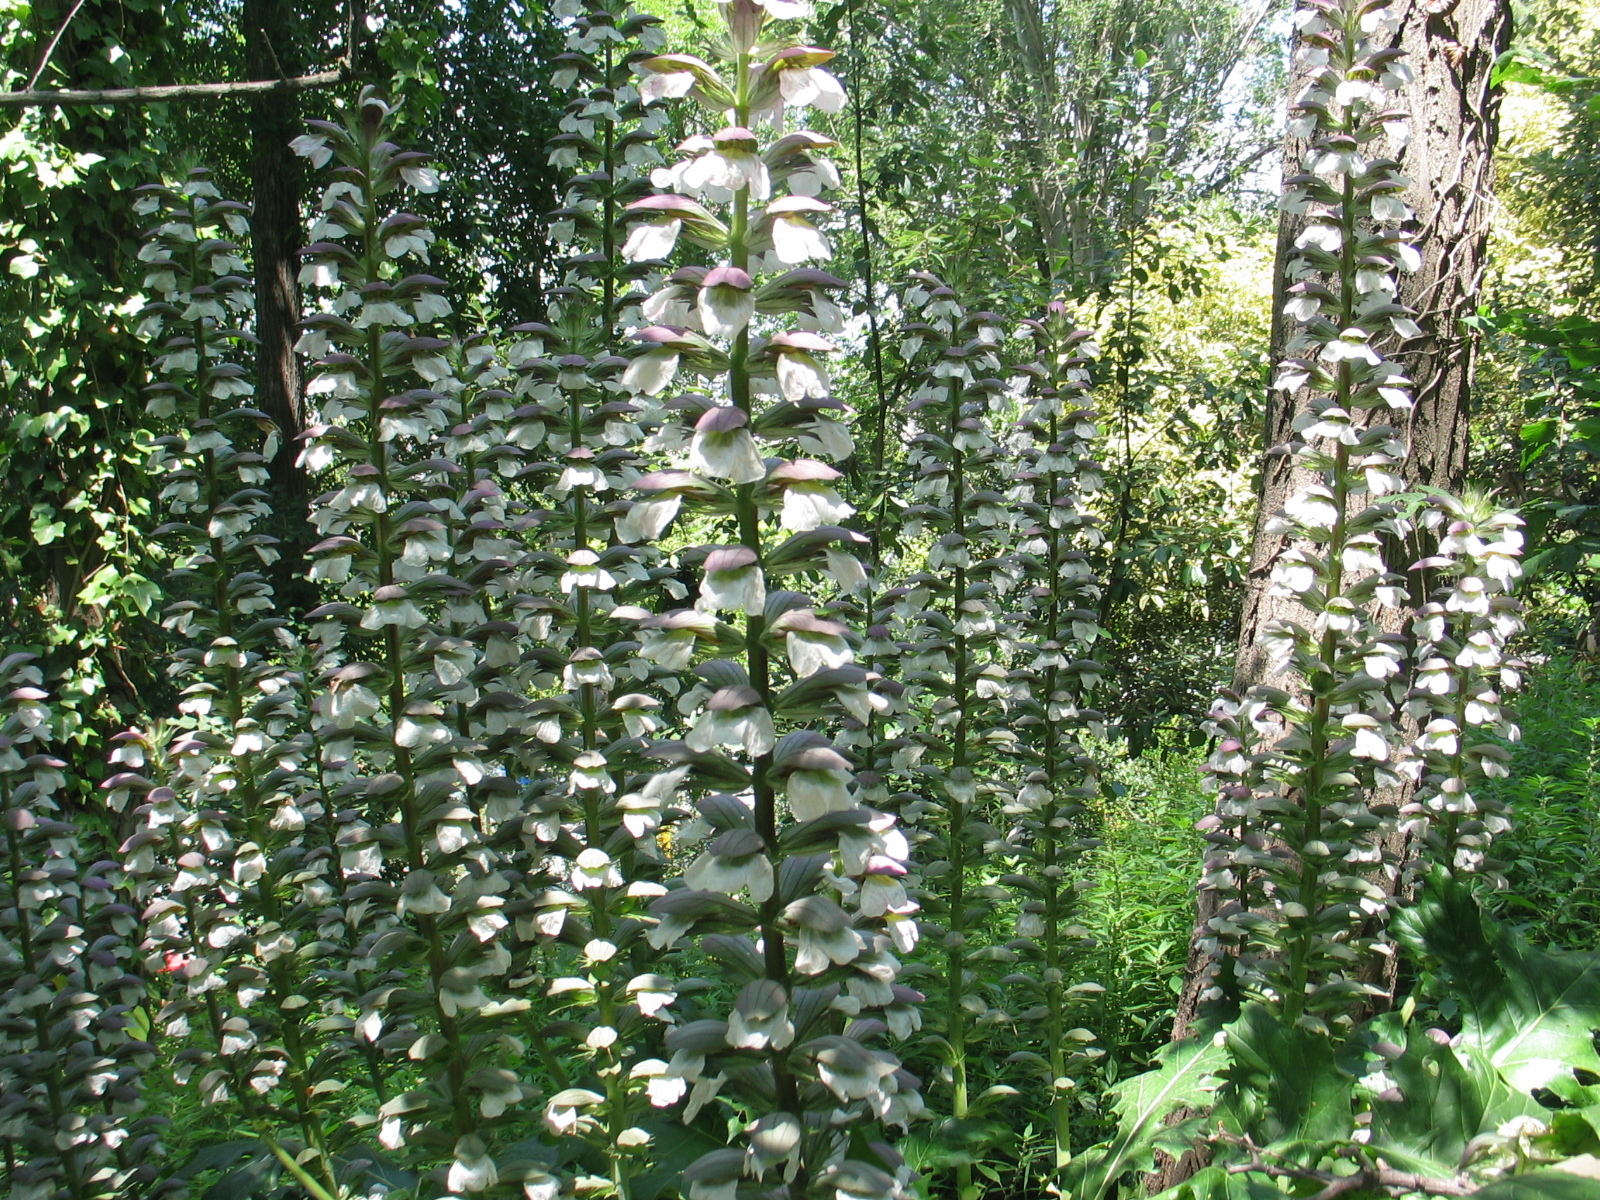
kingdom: Plantae
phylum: Tracheophyta
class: Magnoliopsida
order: Lamiales
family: Acanthaceae
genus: Acanthus
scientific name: Acanthus mollis
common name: Bear's-breech
